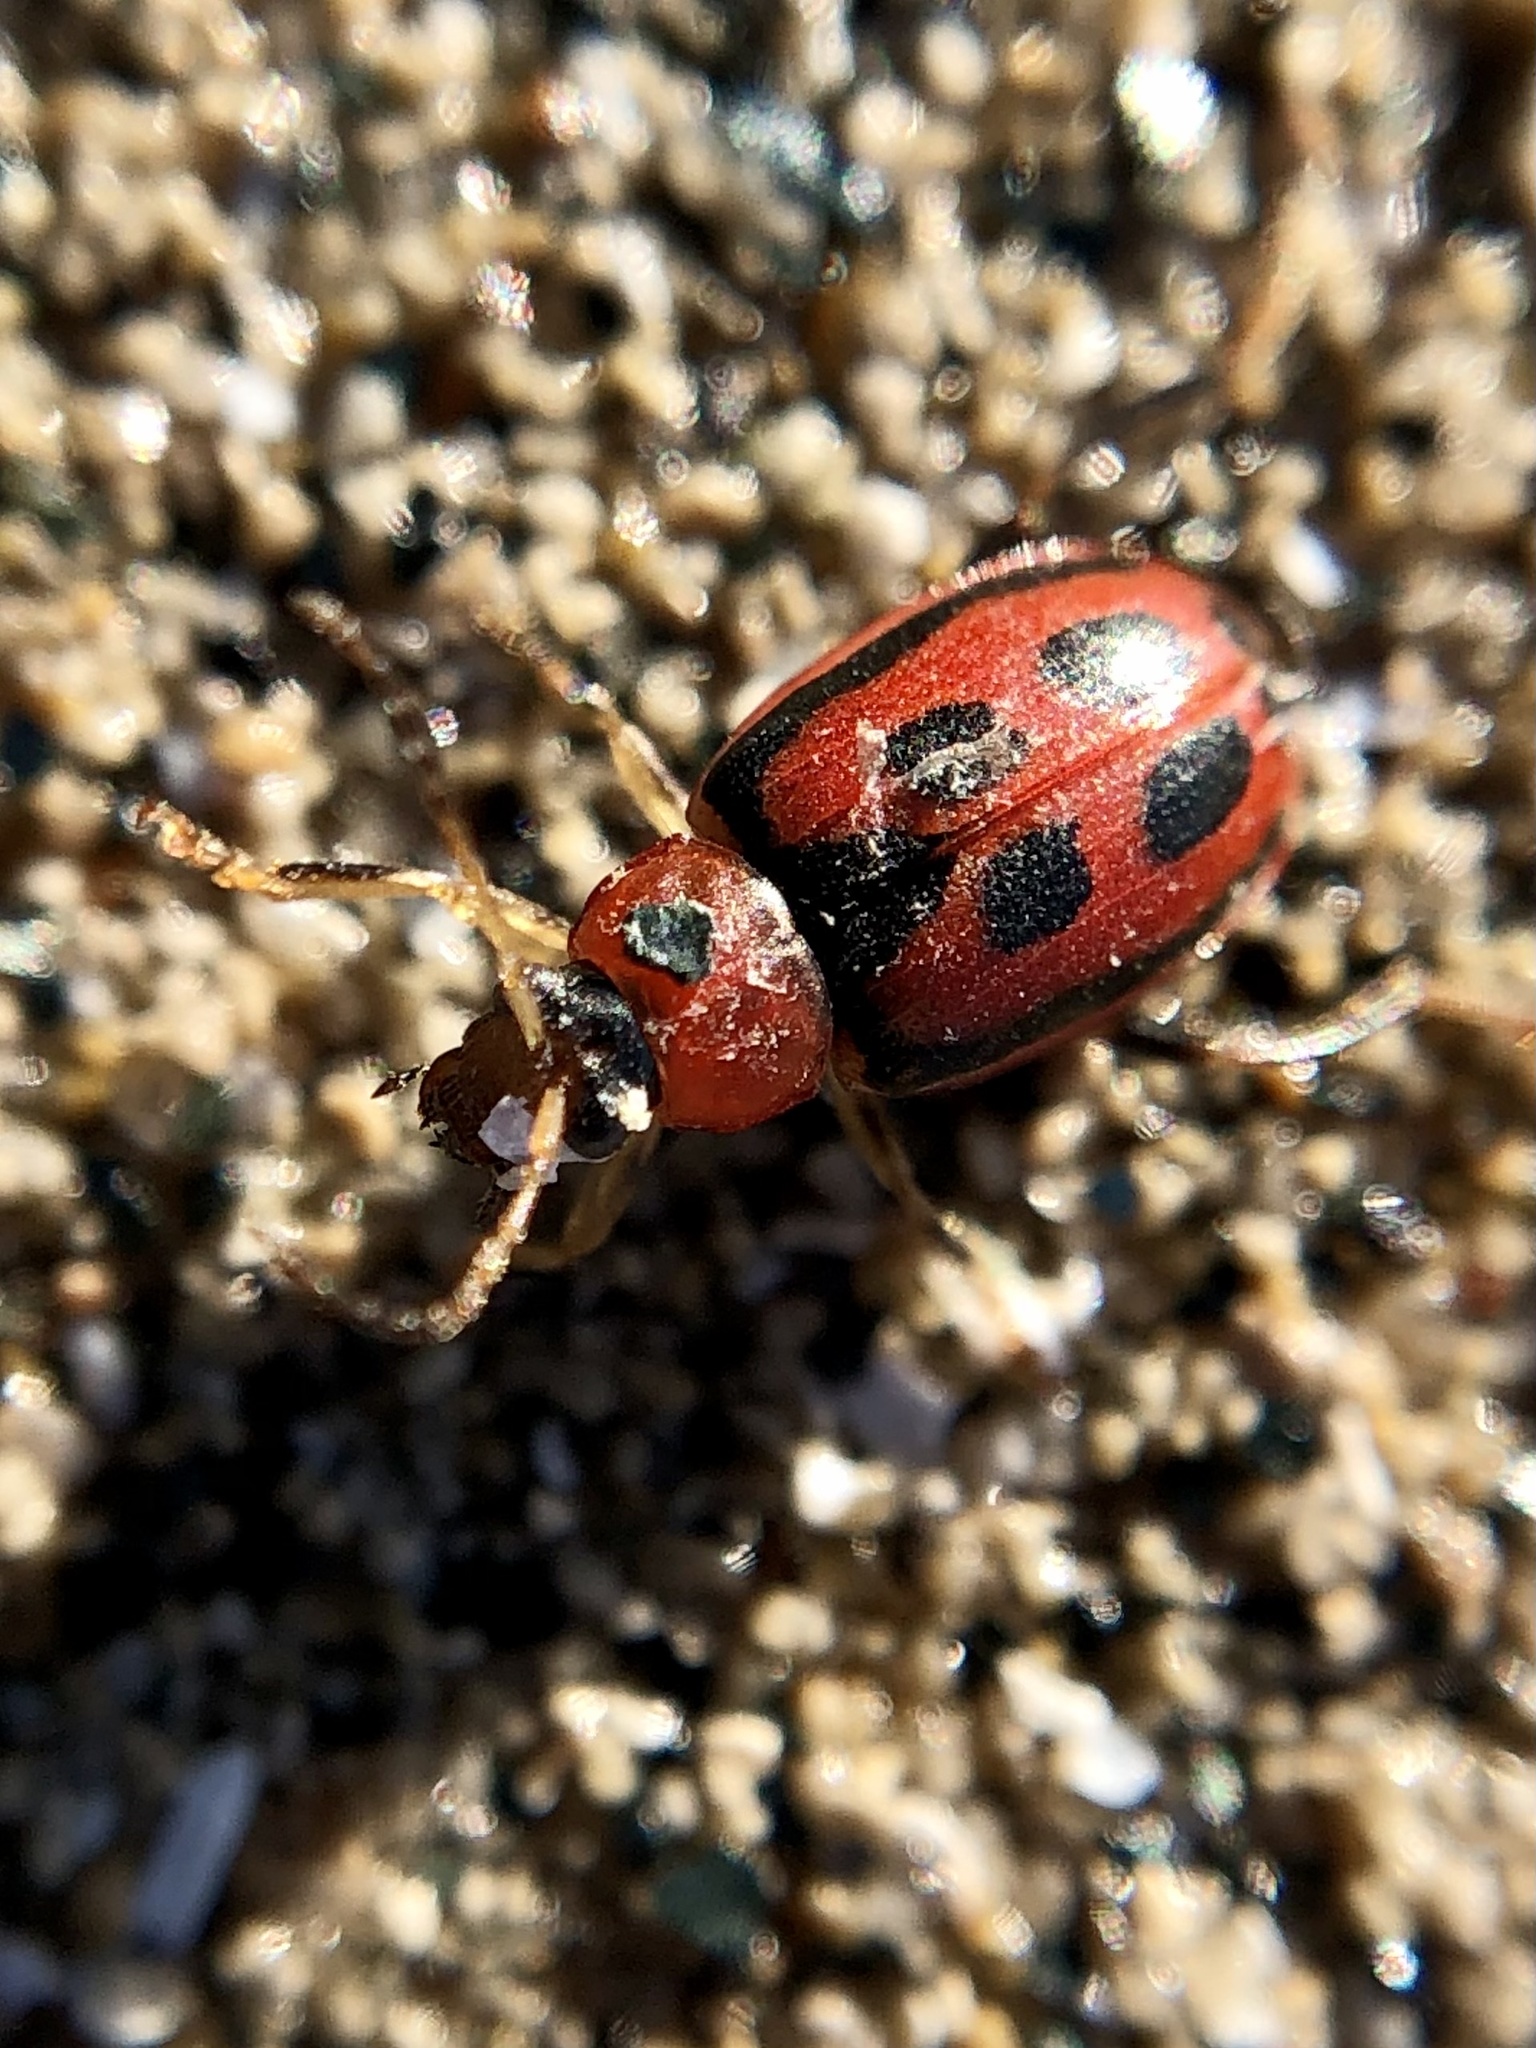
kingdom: Animalia
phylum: Arthropoda
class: Insecta
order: Coleoptera
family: Chrysomelidae
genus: Cerotoma
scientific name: Cerotoma trifurcata
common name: Bean leaf beetle
